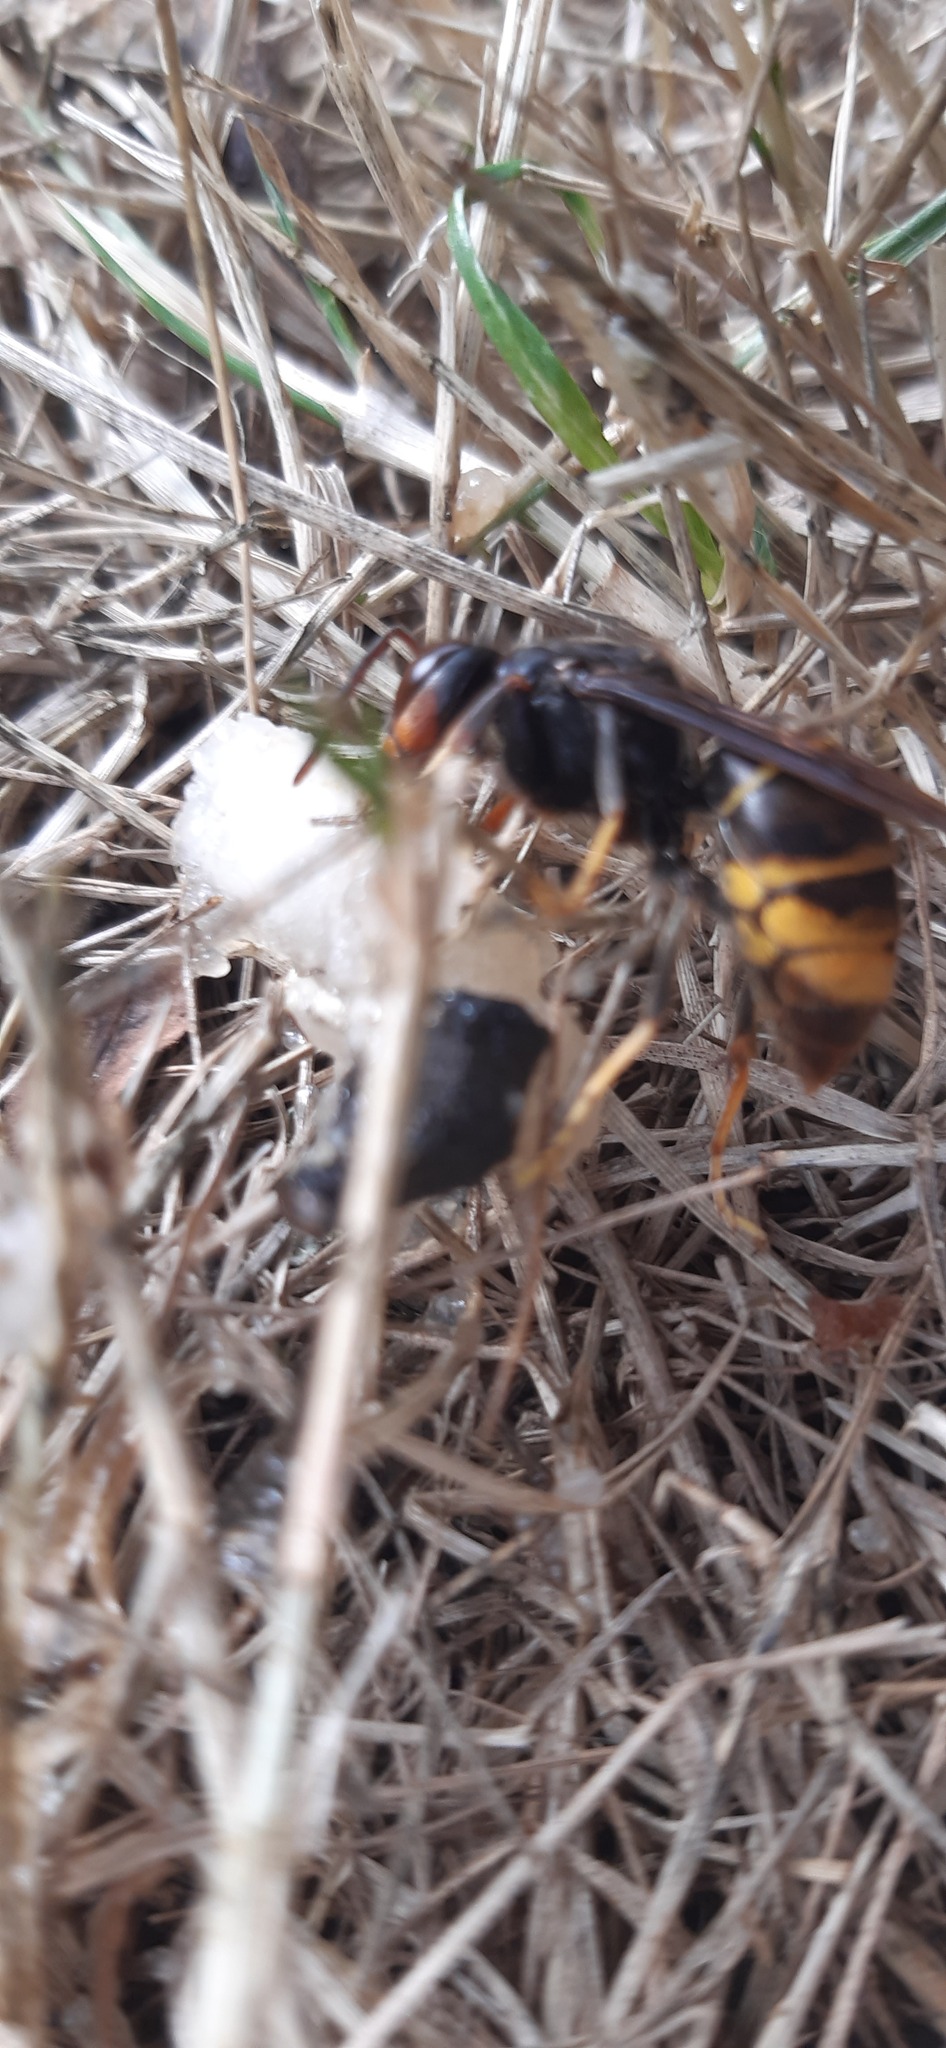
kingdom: Animalia
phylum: Arthropoda
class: Insecta
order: Hymenoptera
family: Vespidae
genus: Vespa
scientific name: Vespa velutina
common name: Asian hornet
